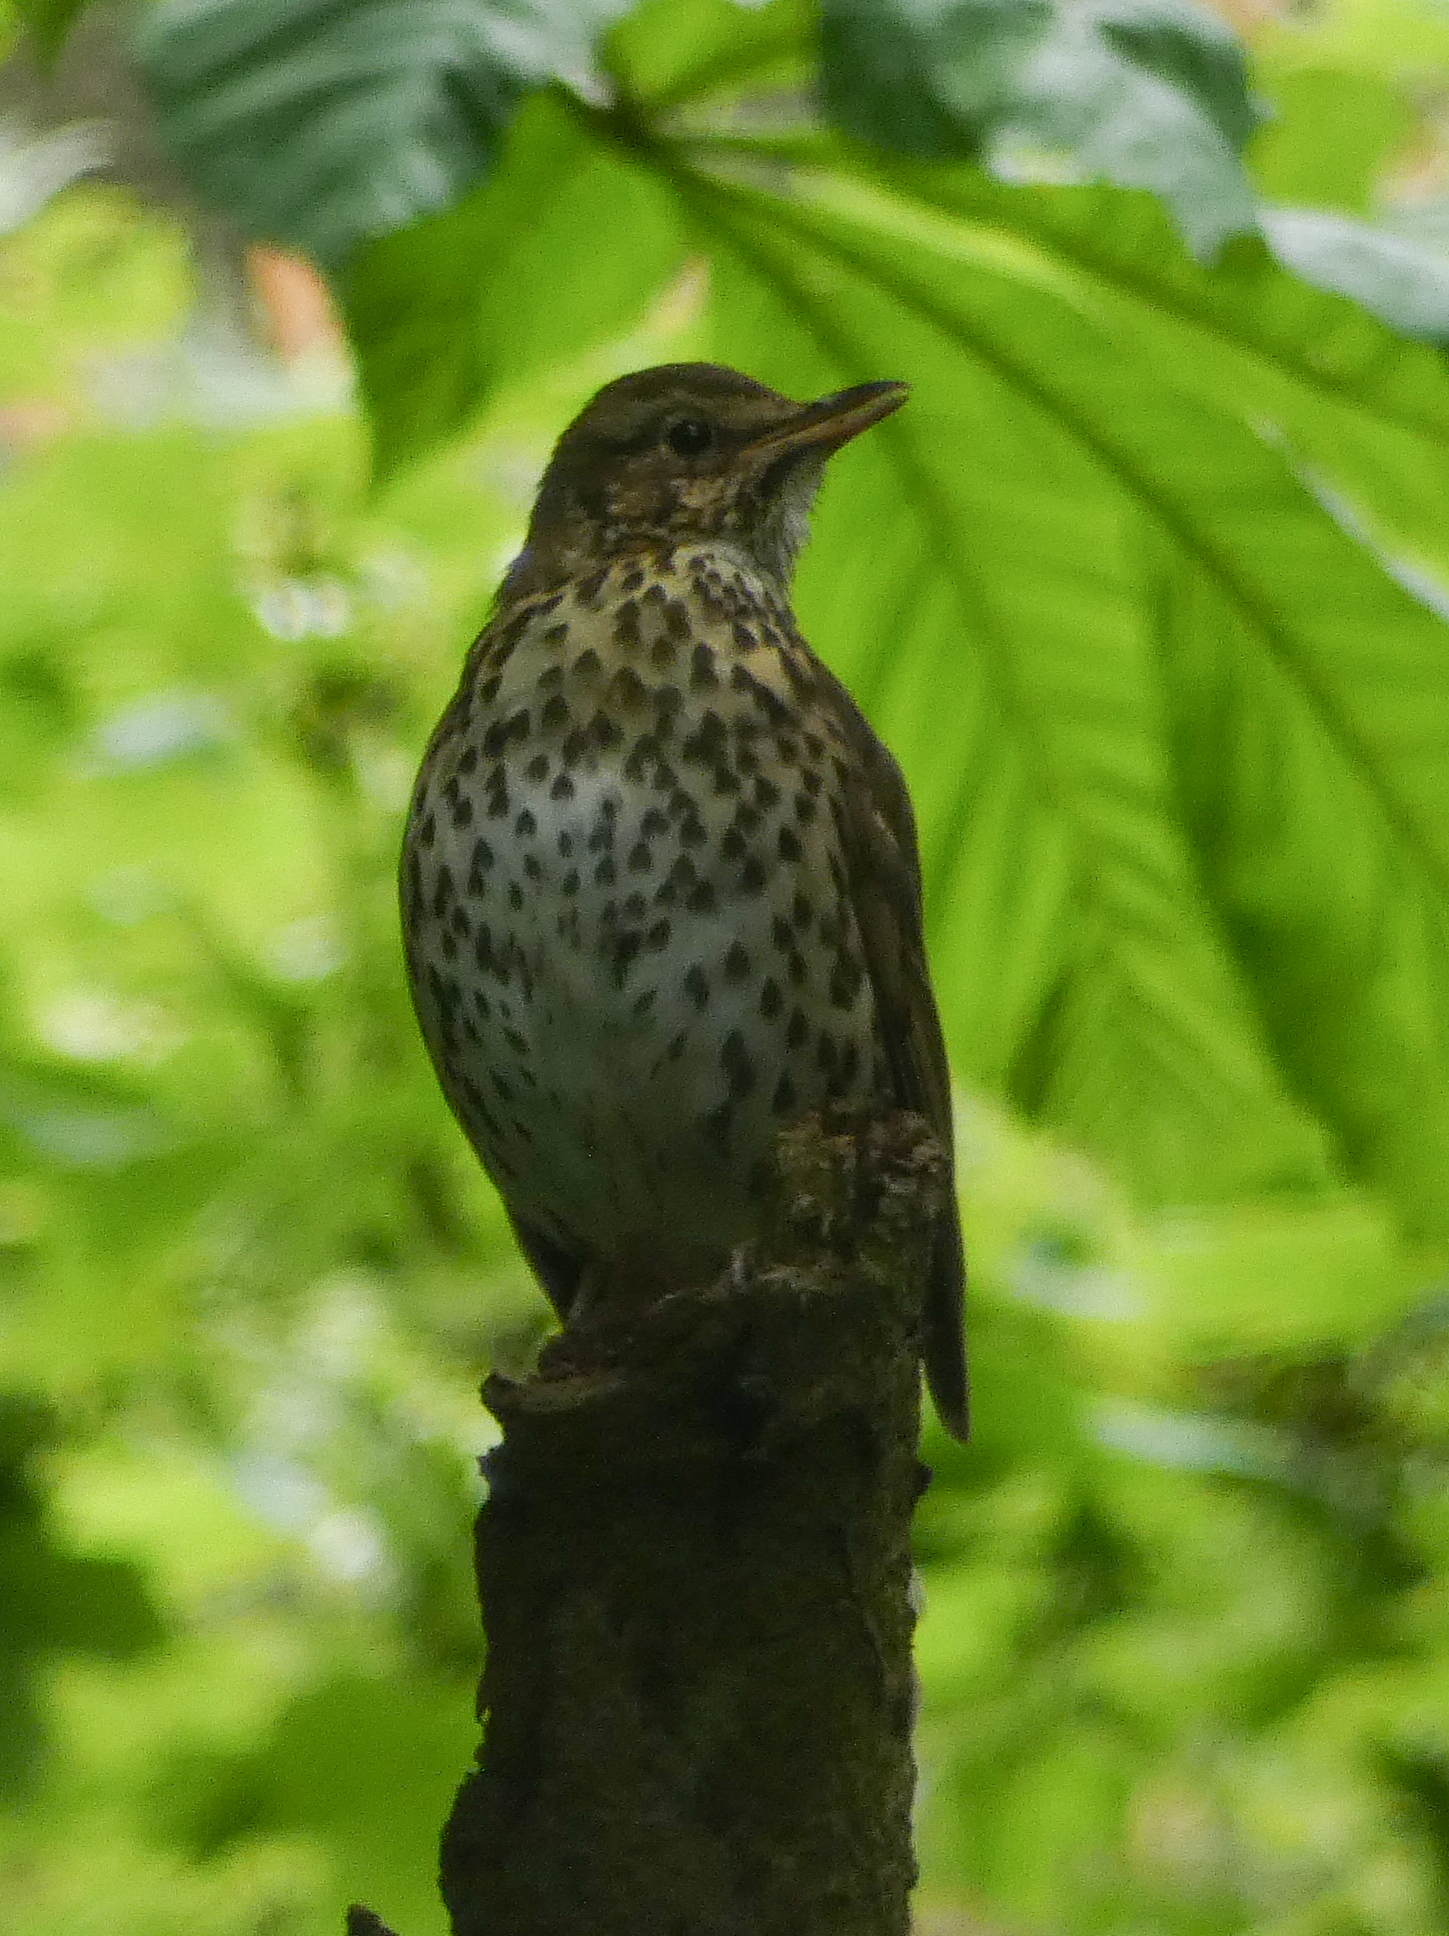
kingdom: Animalia
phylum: Chordata
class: Aves
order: Passeriformes
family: Turdidae
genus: Turdus
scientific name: Turdus philomelos
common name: Song thrush
